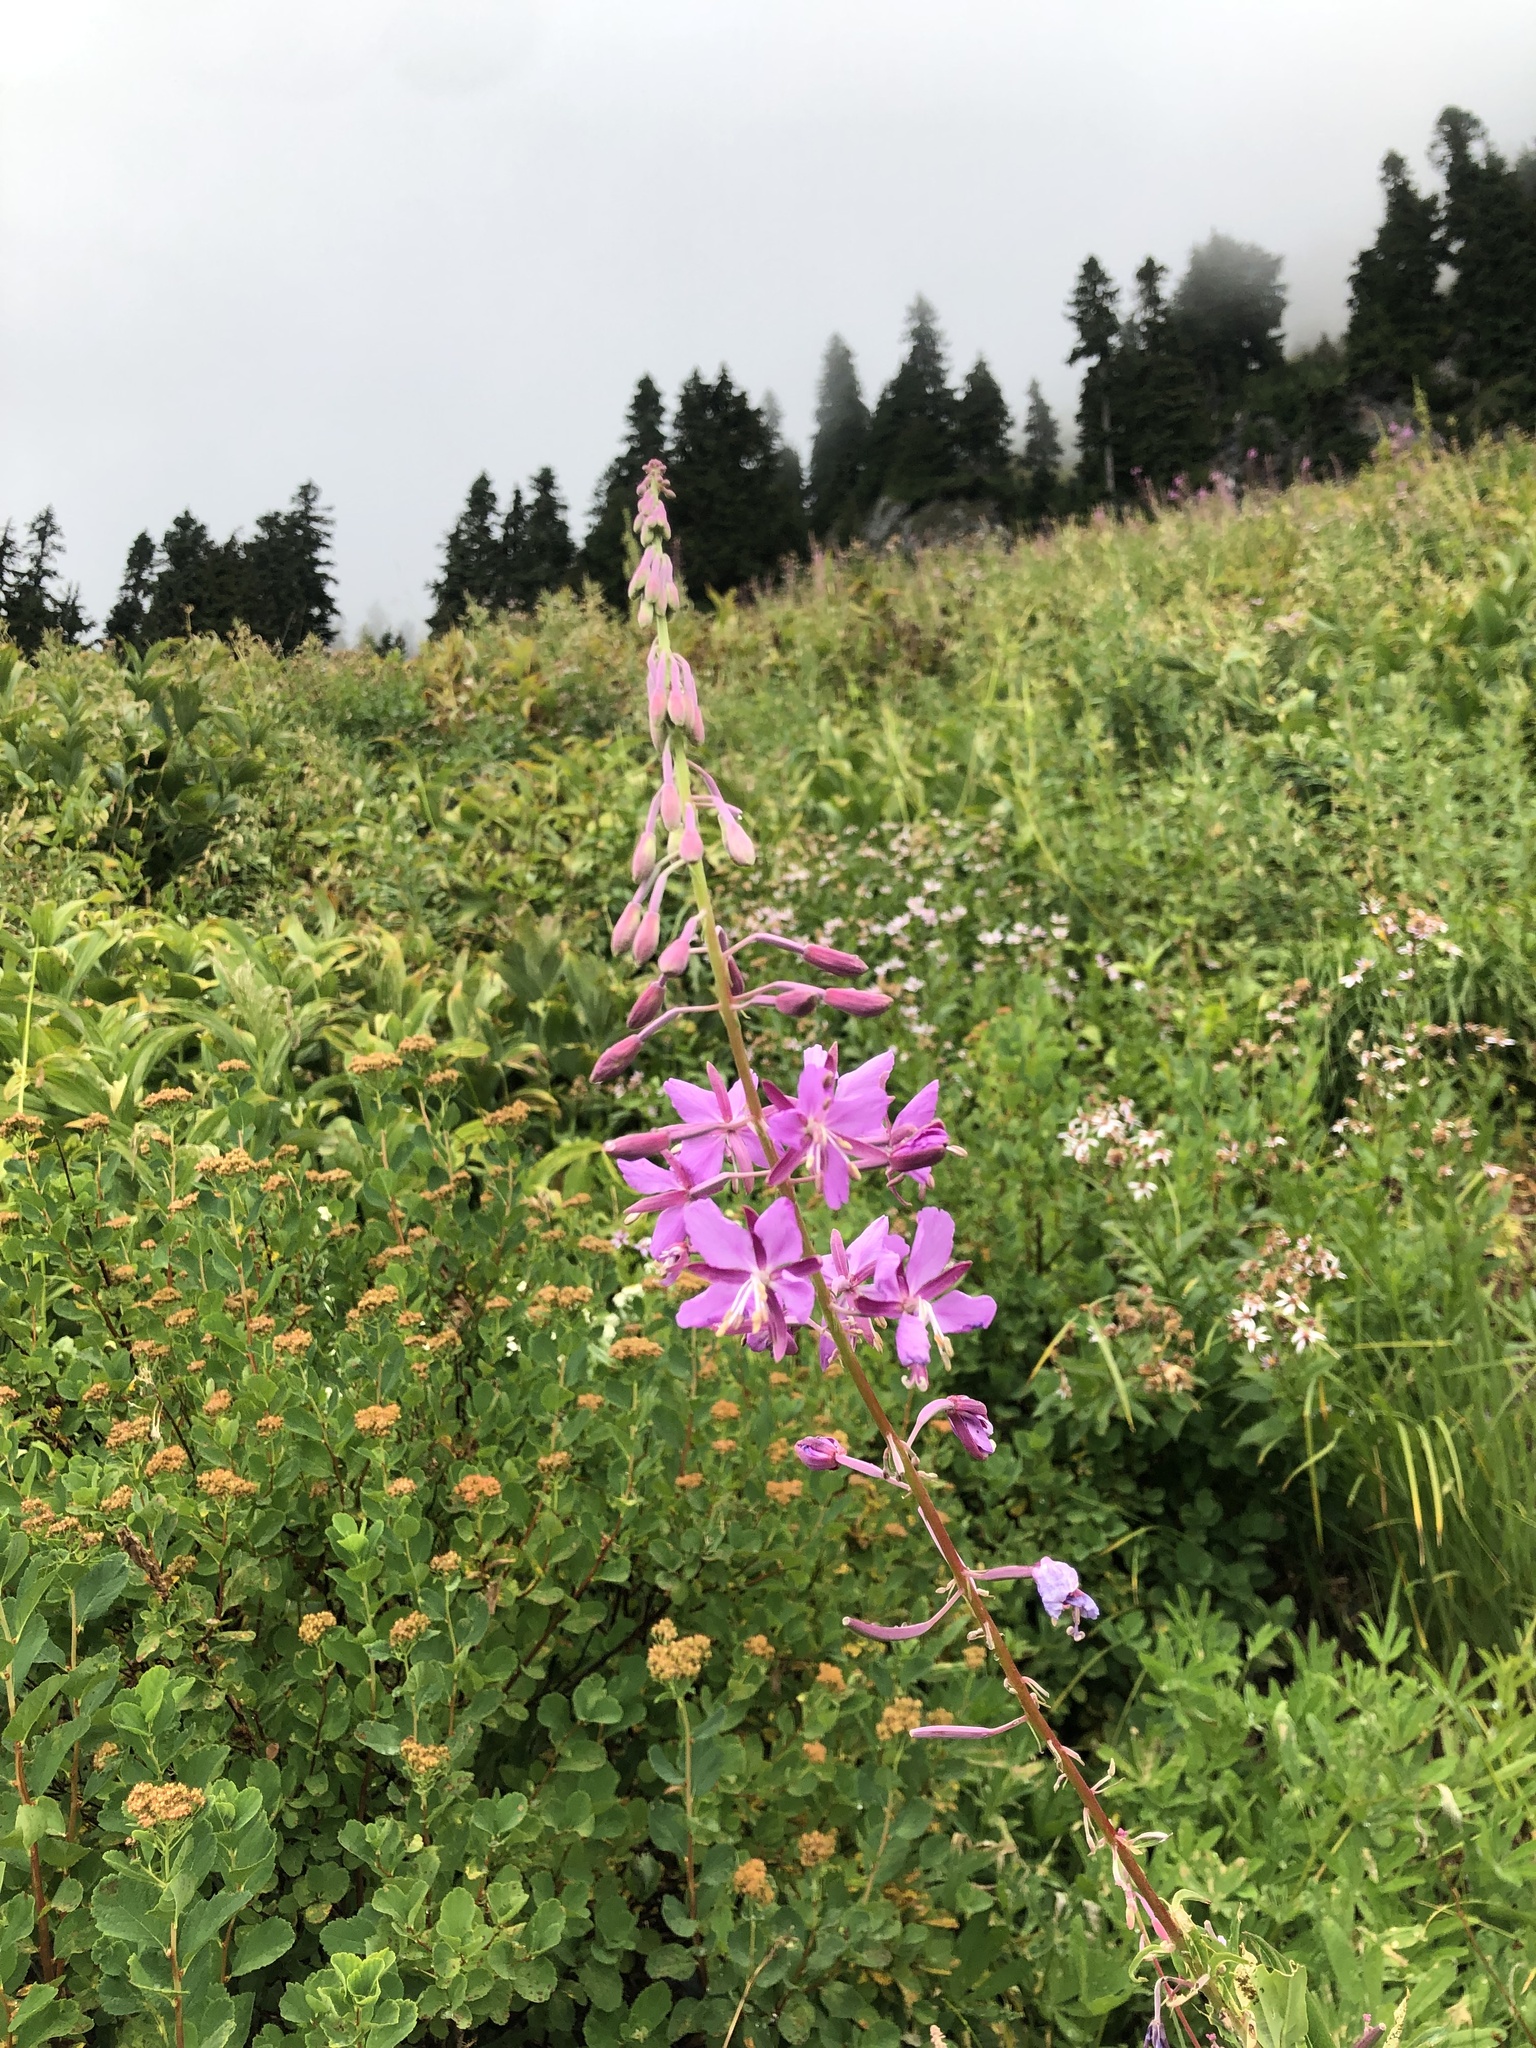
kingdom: Plantae
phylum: Tracheophyta
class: Magnoliopsida
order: Myrtales
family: Onagraceae
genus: Chamaenerion
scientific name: Chamaenerion angustifolium
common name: Fireweed
